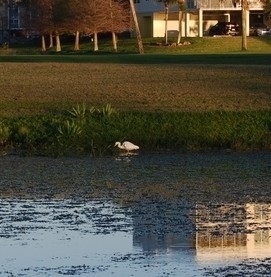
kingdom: Animalia
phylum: Chordata
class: Aves
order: Pelecaniformes
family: Ardeidae
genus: Egretta
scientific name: Egretta thula
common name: Snowy egret
